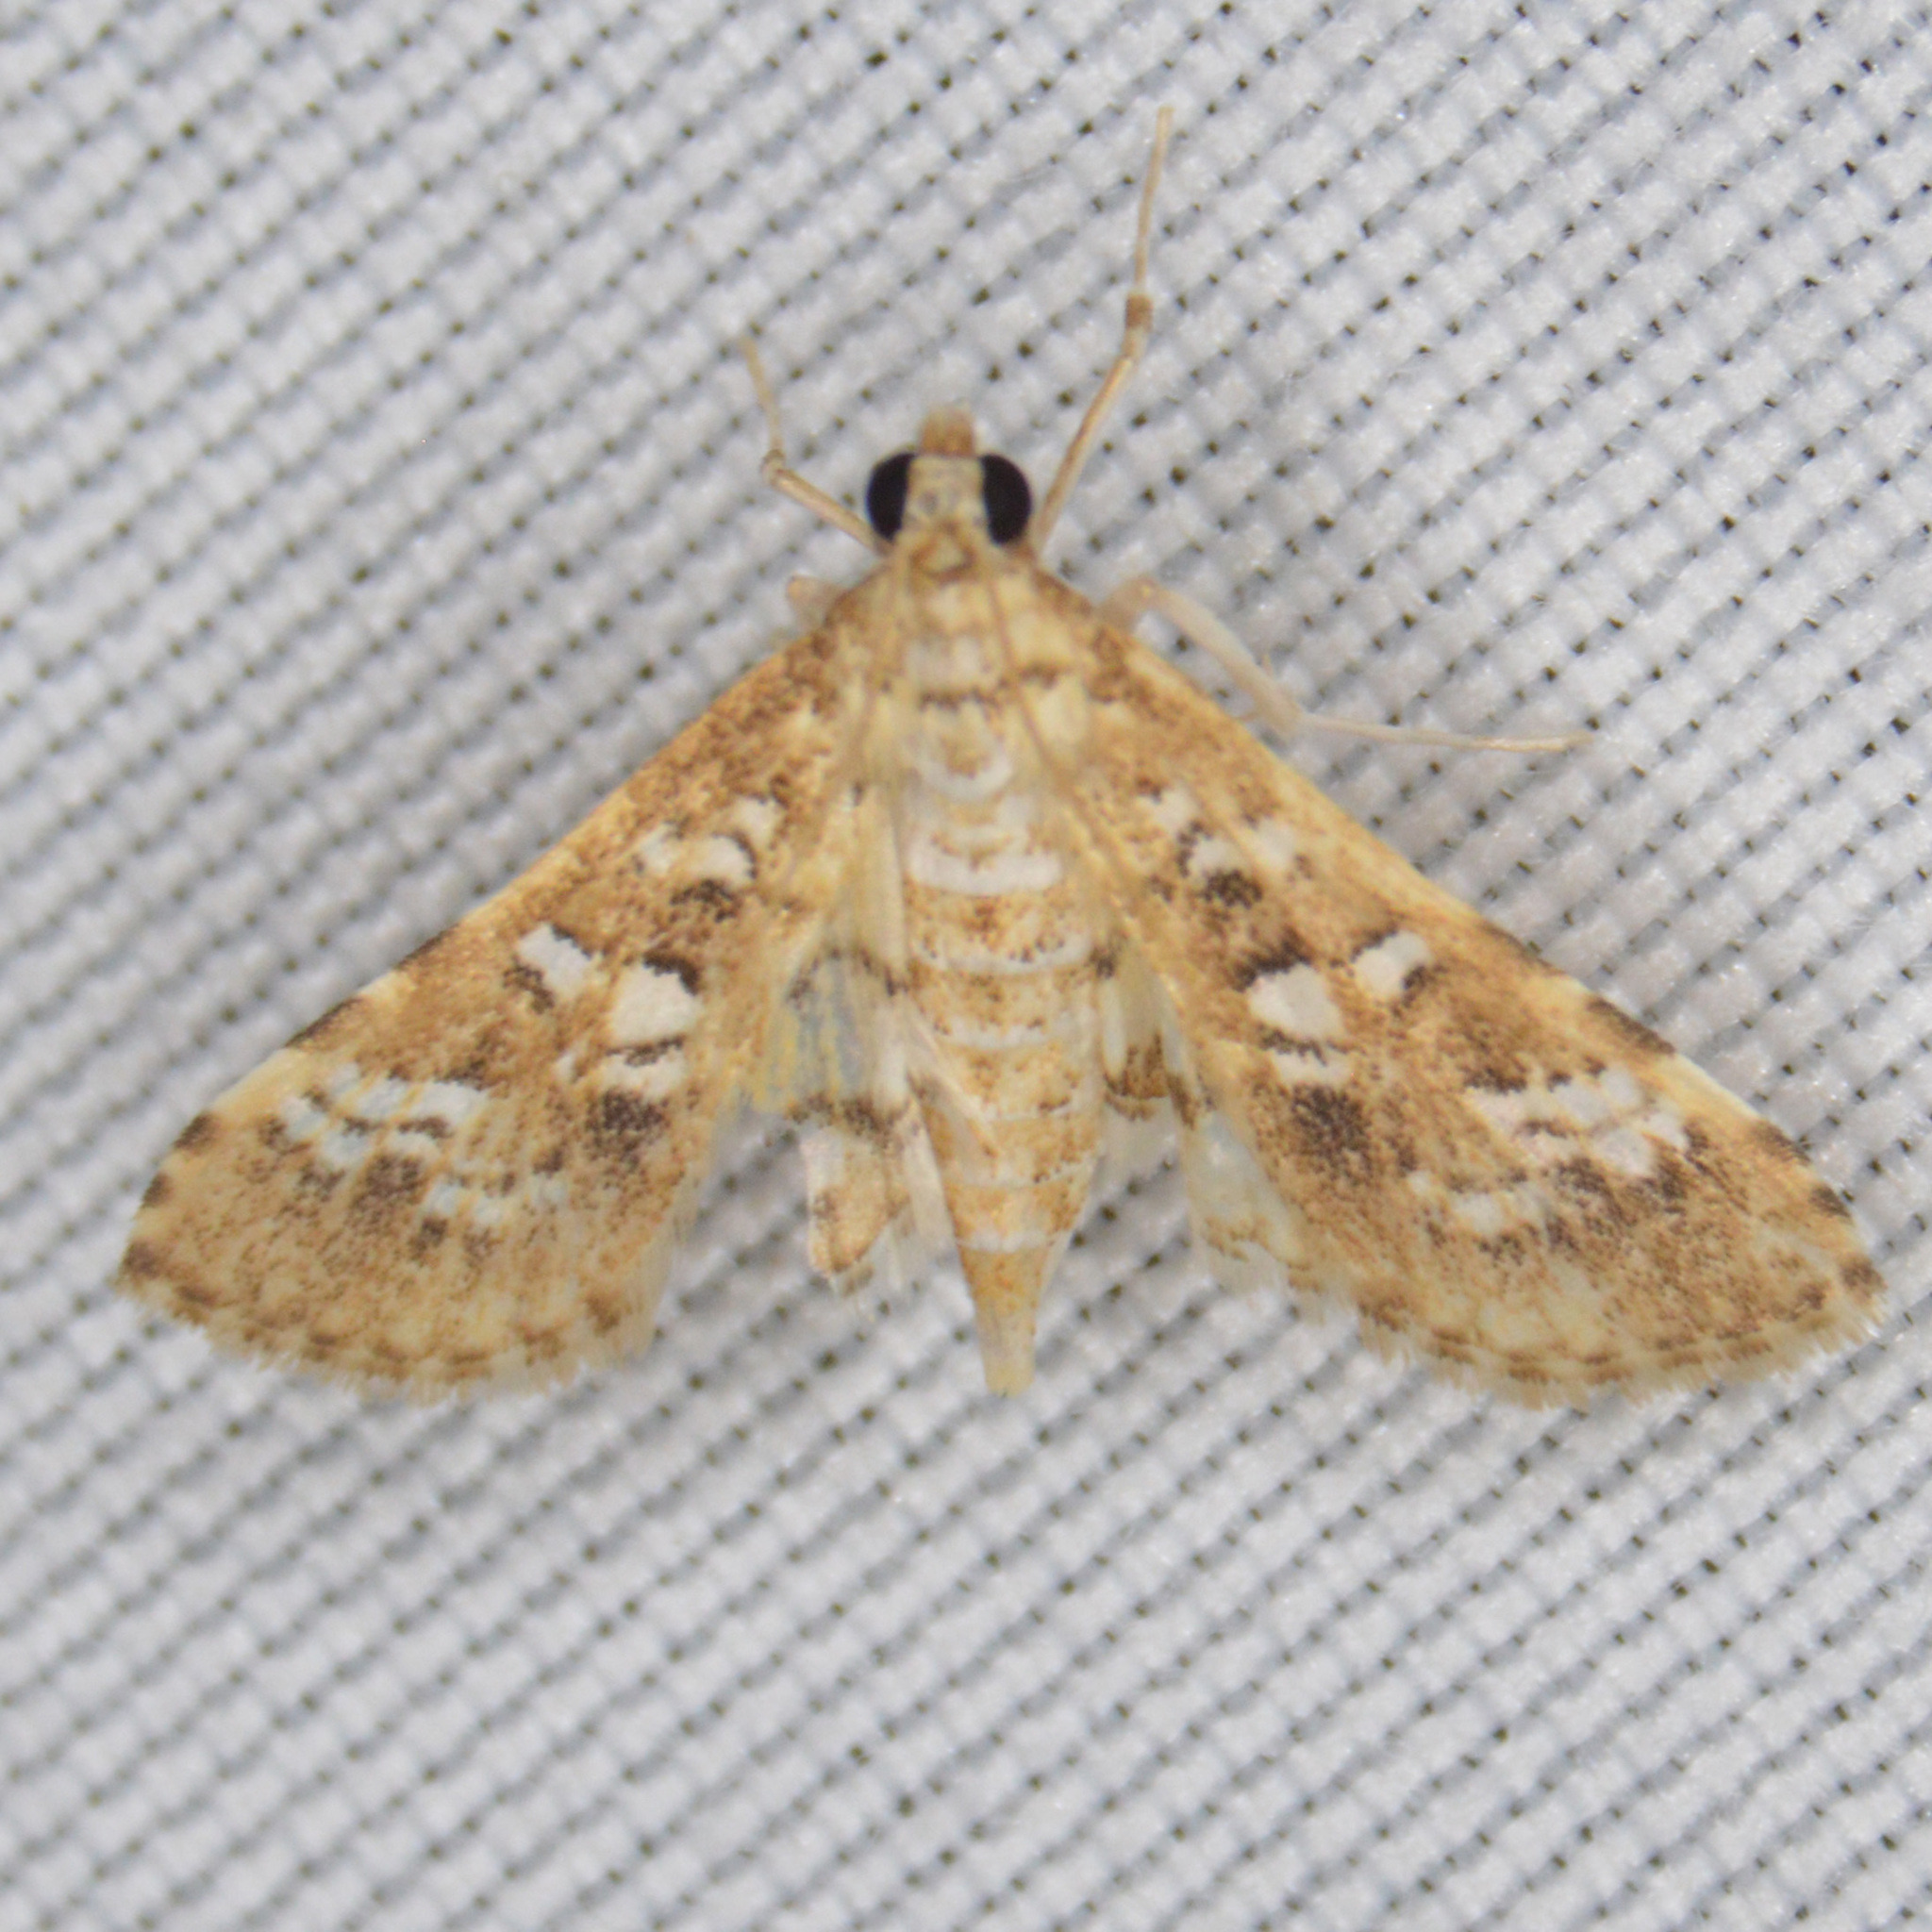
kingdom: Animalia
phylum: Arthropoda
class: Insecta
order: Lepidoptera
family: Crambidae
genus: Samea
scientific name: Samea multiplicalis
